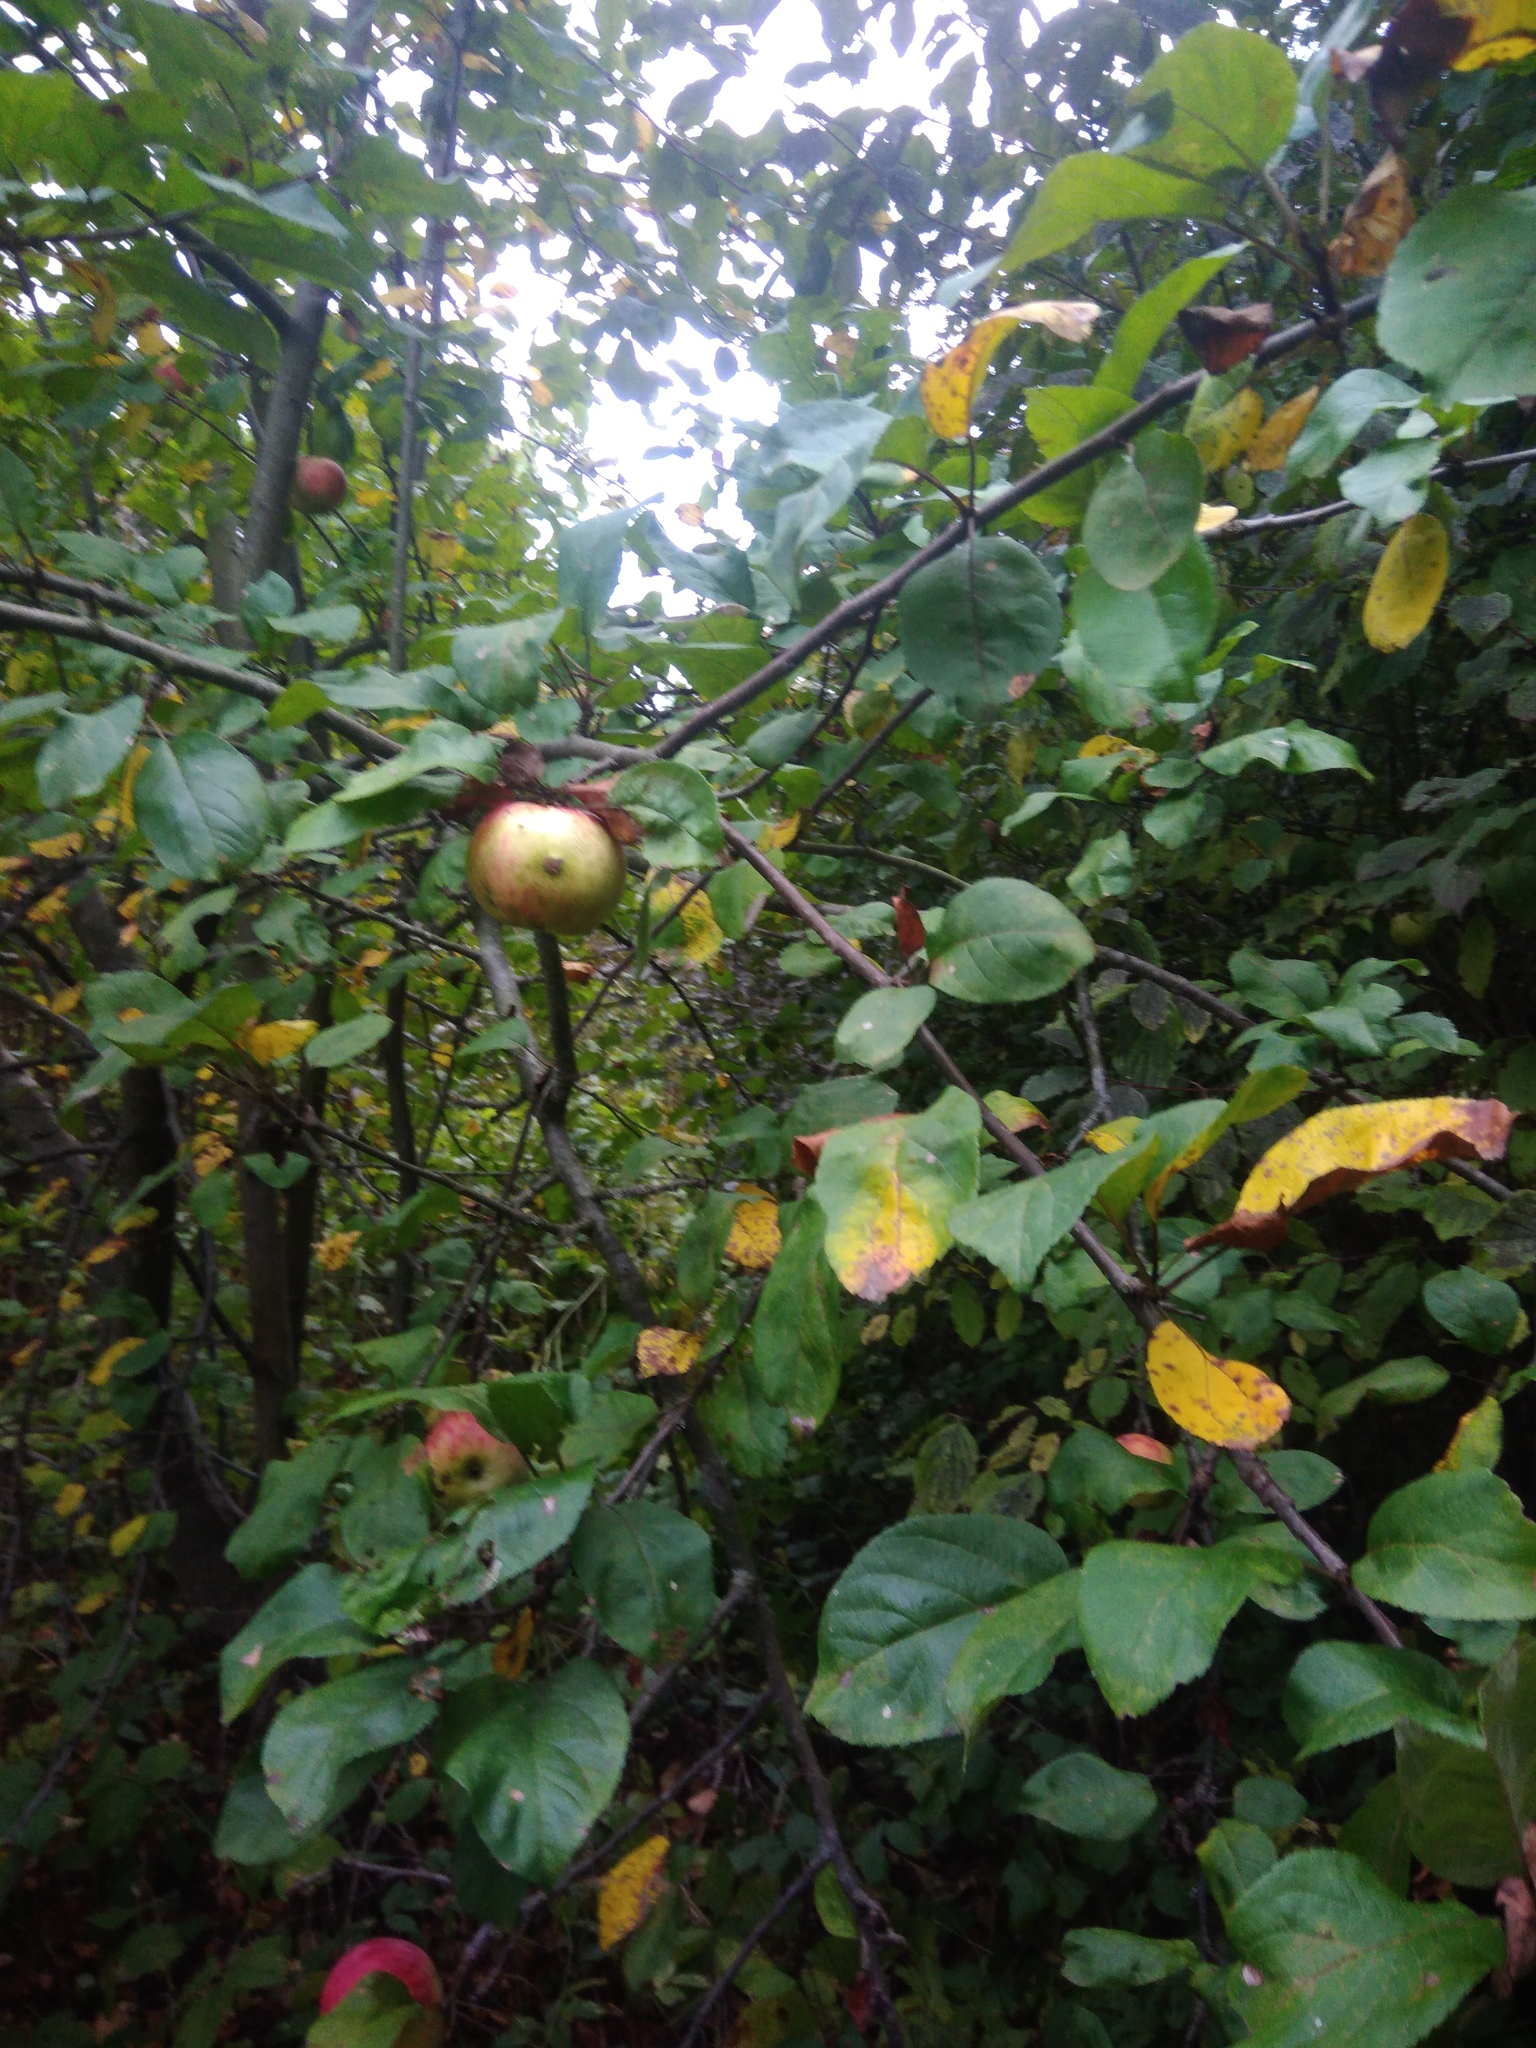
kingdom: Plantae
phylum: Tracheophyta
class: Magnoliopsida
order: Rosales
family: Rosaceae
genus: Malus
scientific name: Malus domestica
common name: Apple
